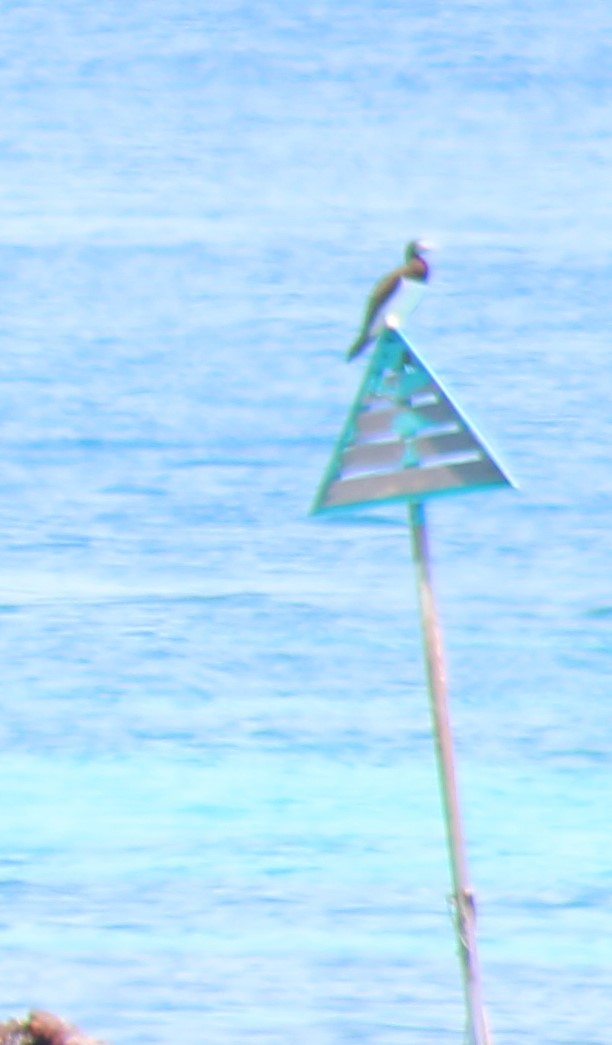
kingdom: Animalia
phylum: Chordata
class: Aves
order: Suliformes
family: Sulidae
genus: Sula
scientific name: Sula leucogaster
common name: Brown booby
